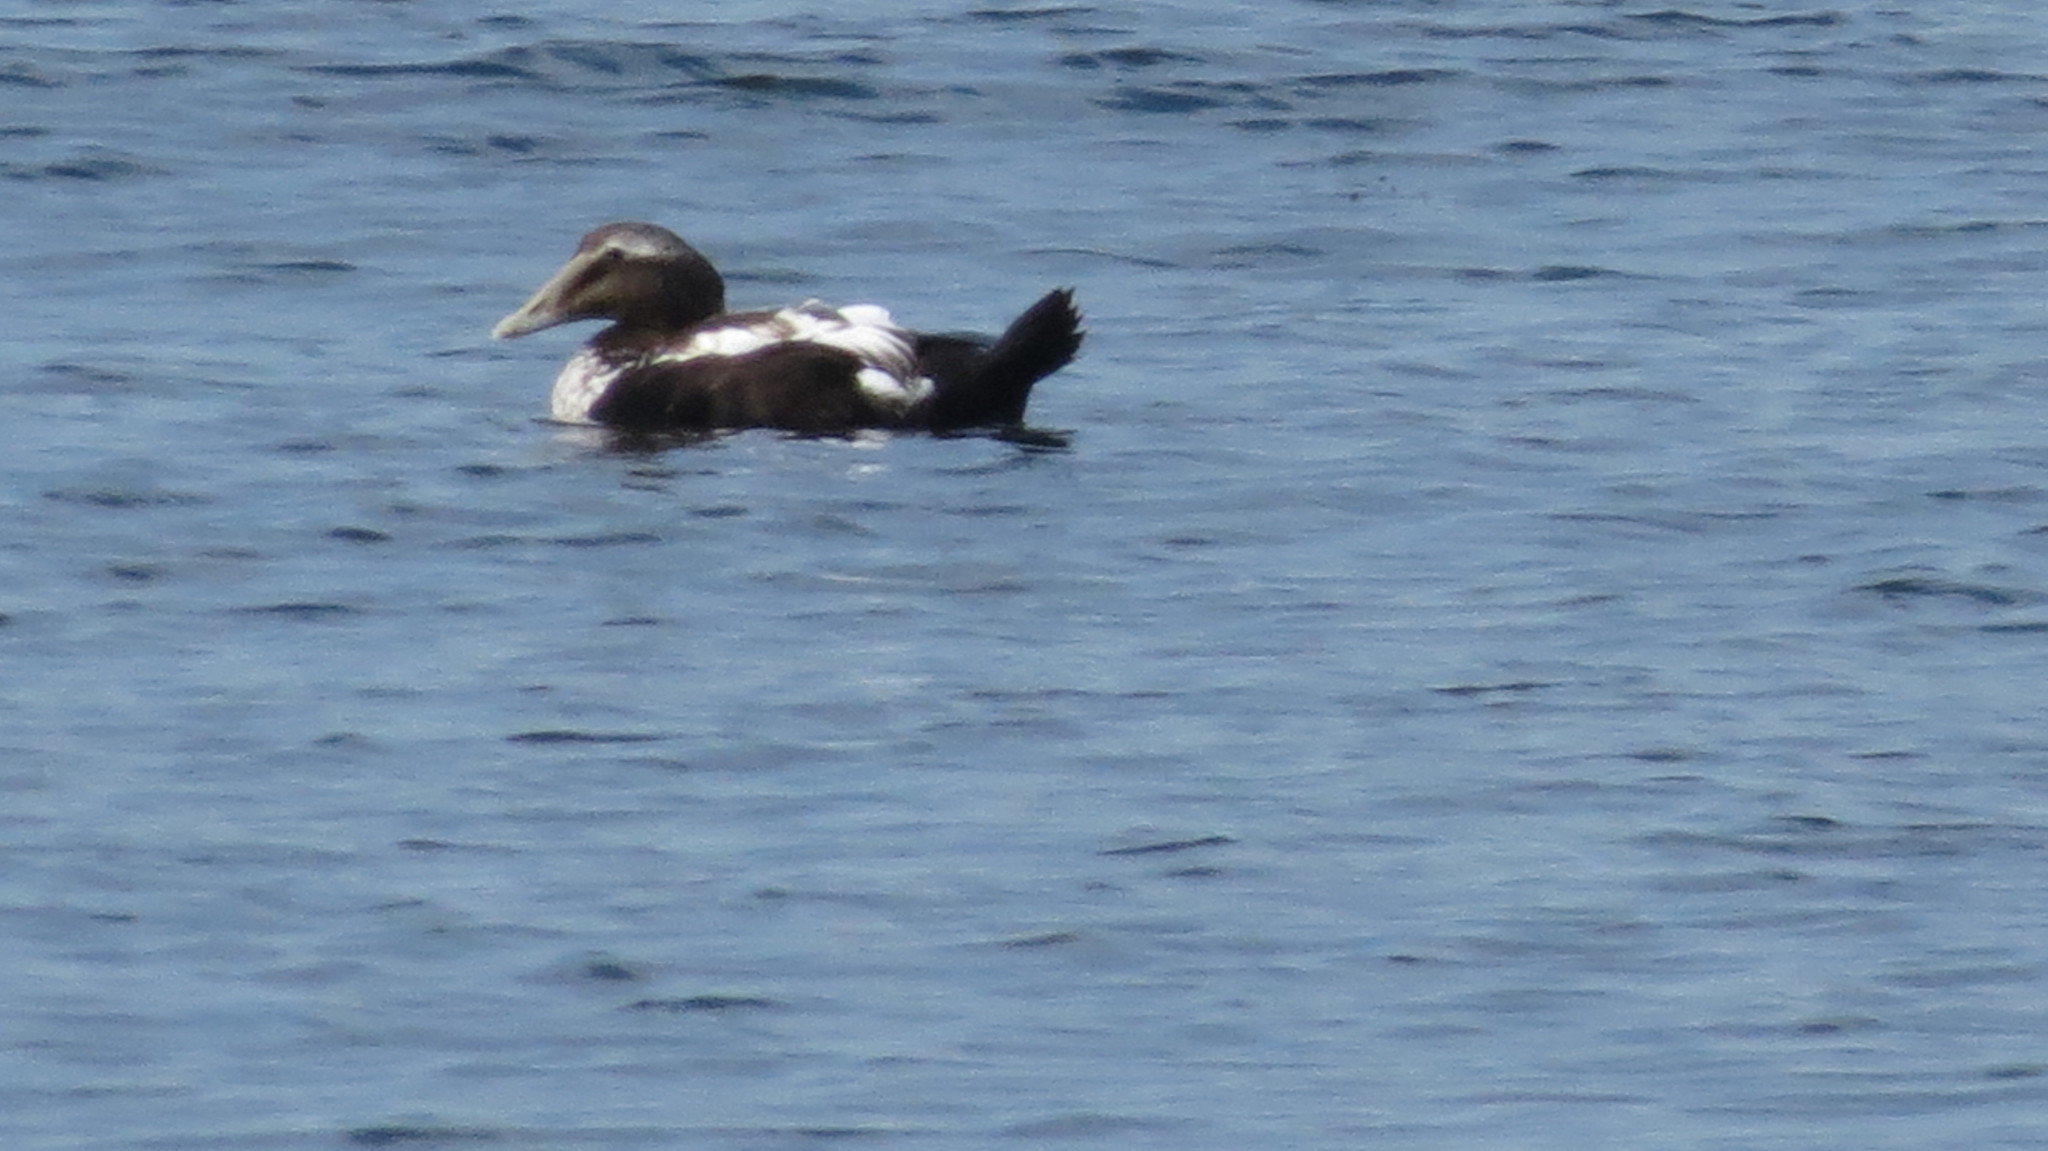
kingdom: Animalia
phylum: Chordata
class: Aves
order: Anseriformes
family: Anatidae
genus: Somateria
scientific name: Somateria mollissima
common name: Common eider
